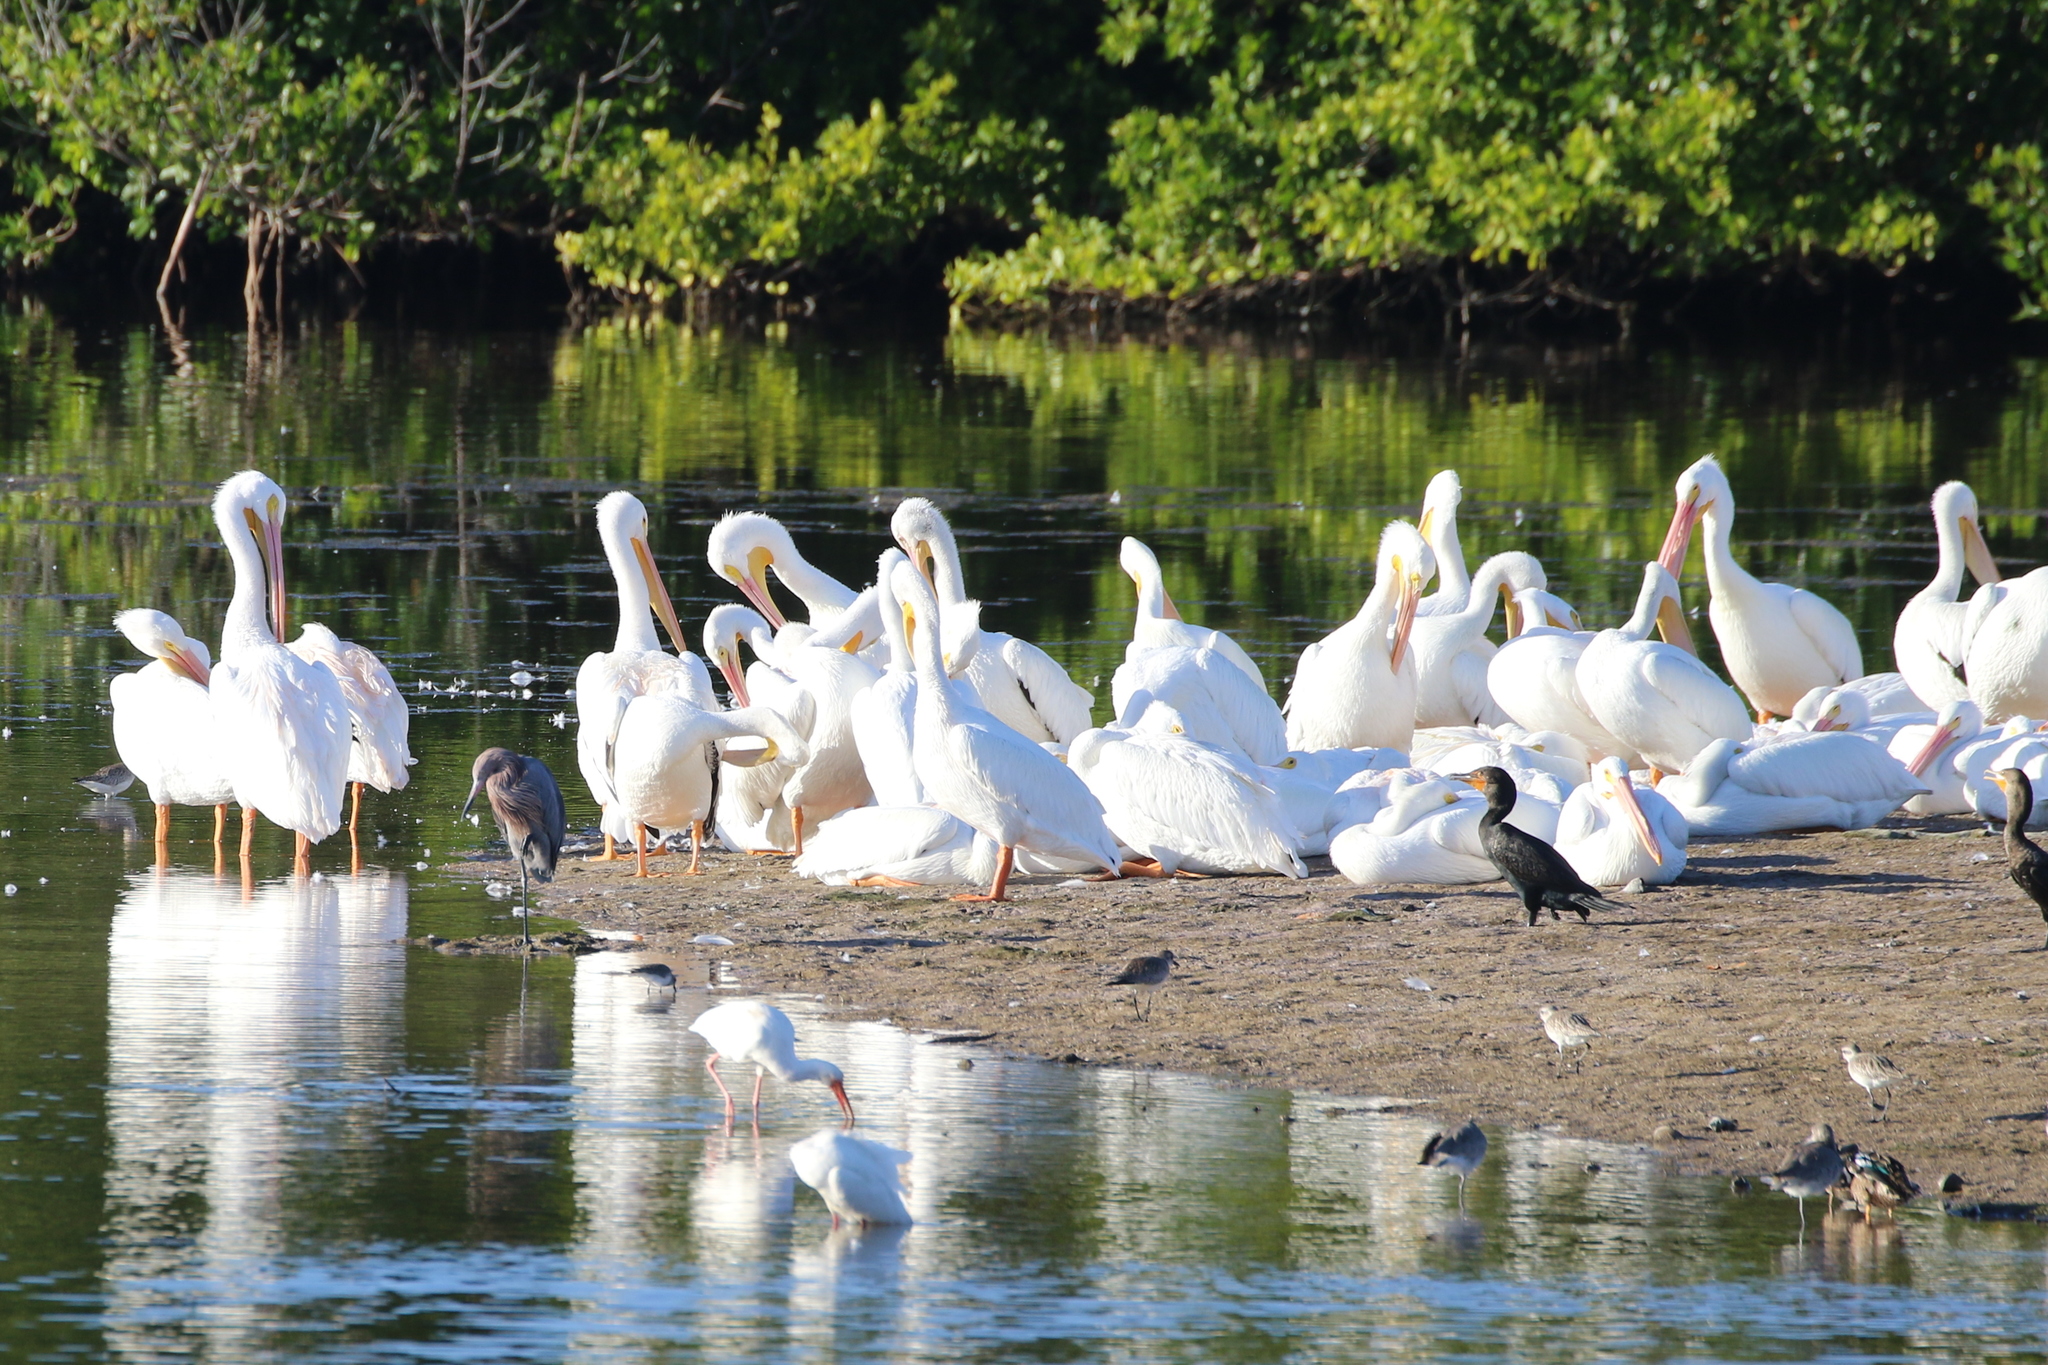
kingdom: Animalia
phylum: Chordata
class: Aves
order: Pelecaniformes
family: Pelecanidae
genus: Pelecanus
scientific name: Pelecanus erythrorhynchos
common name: American white pelican
